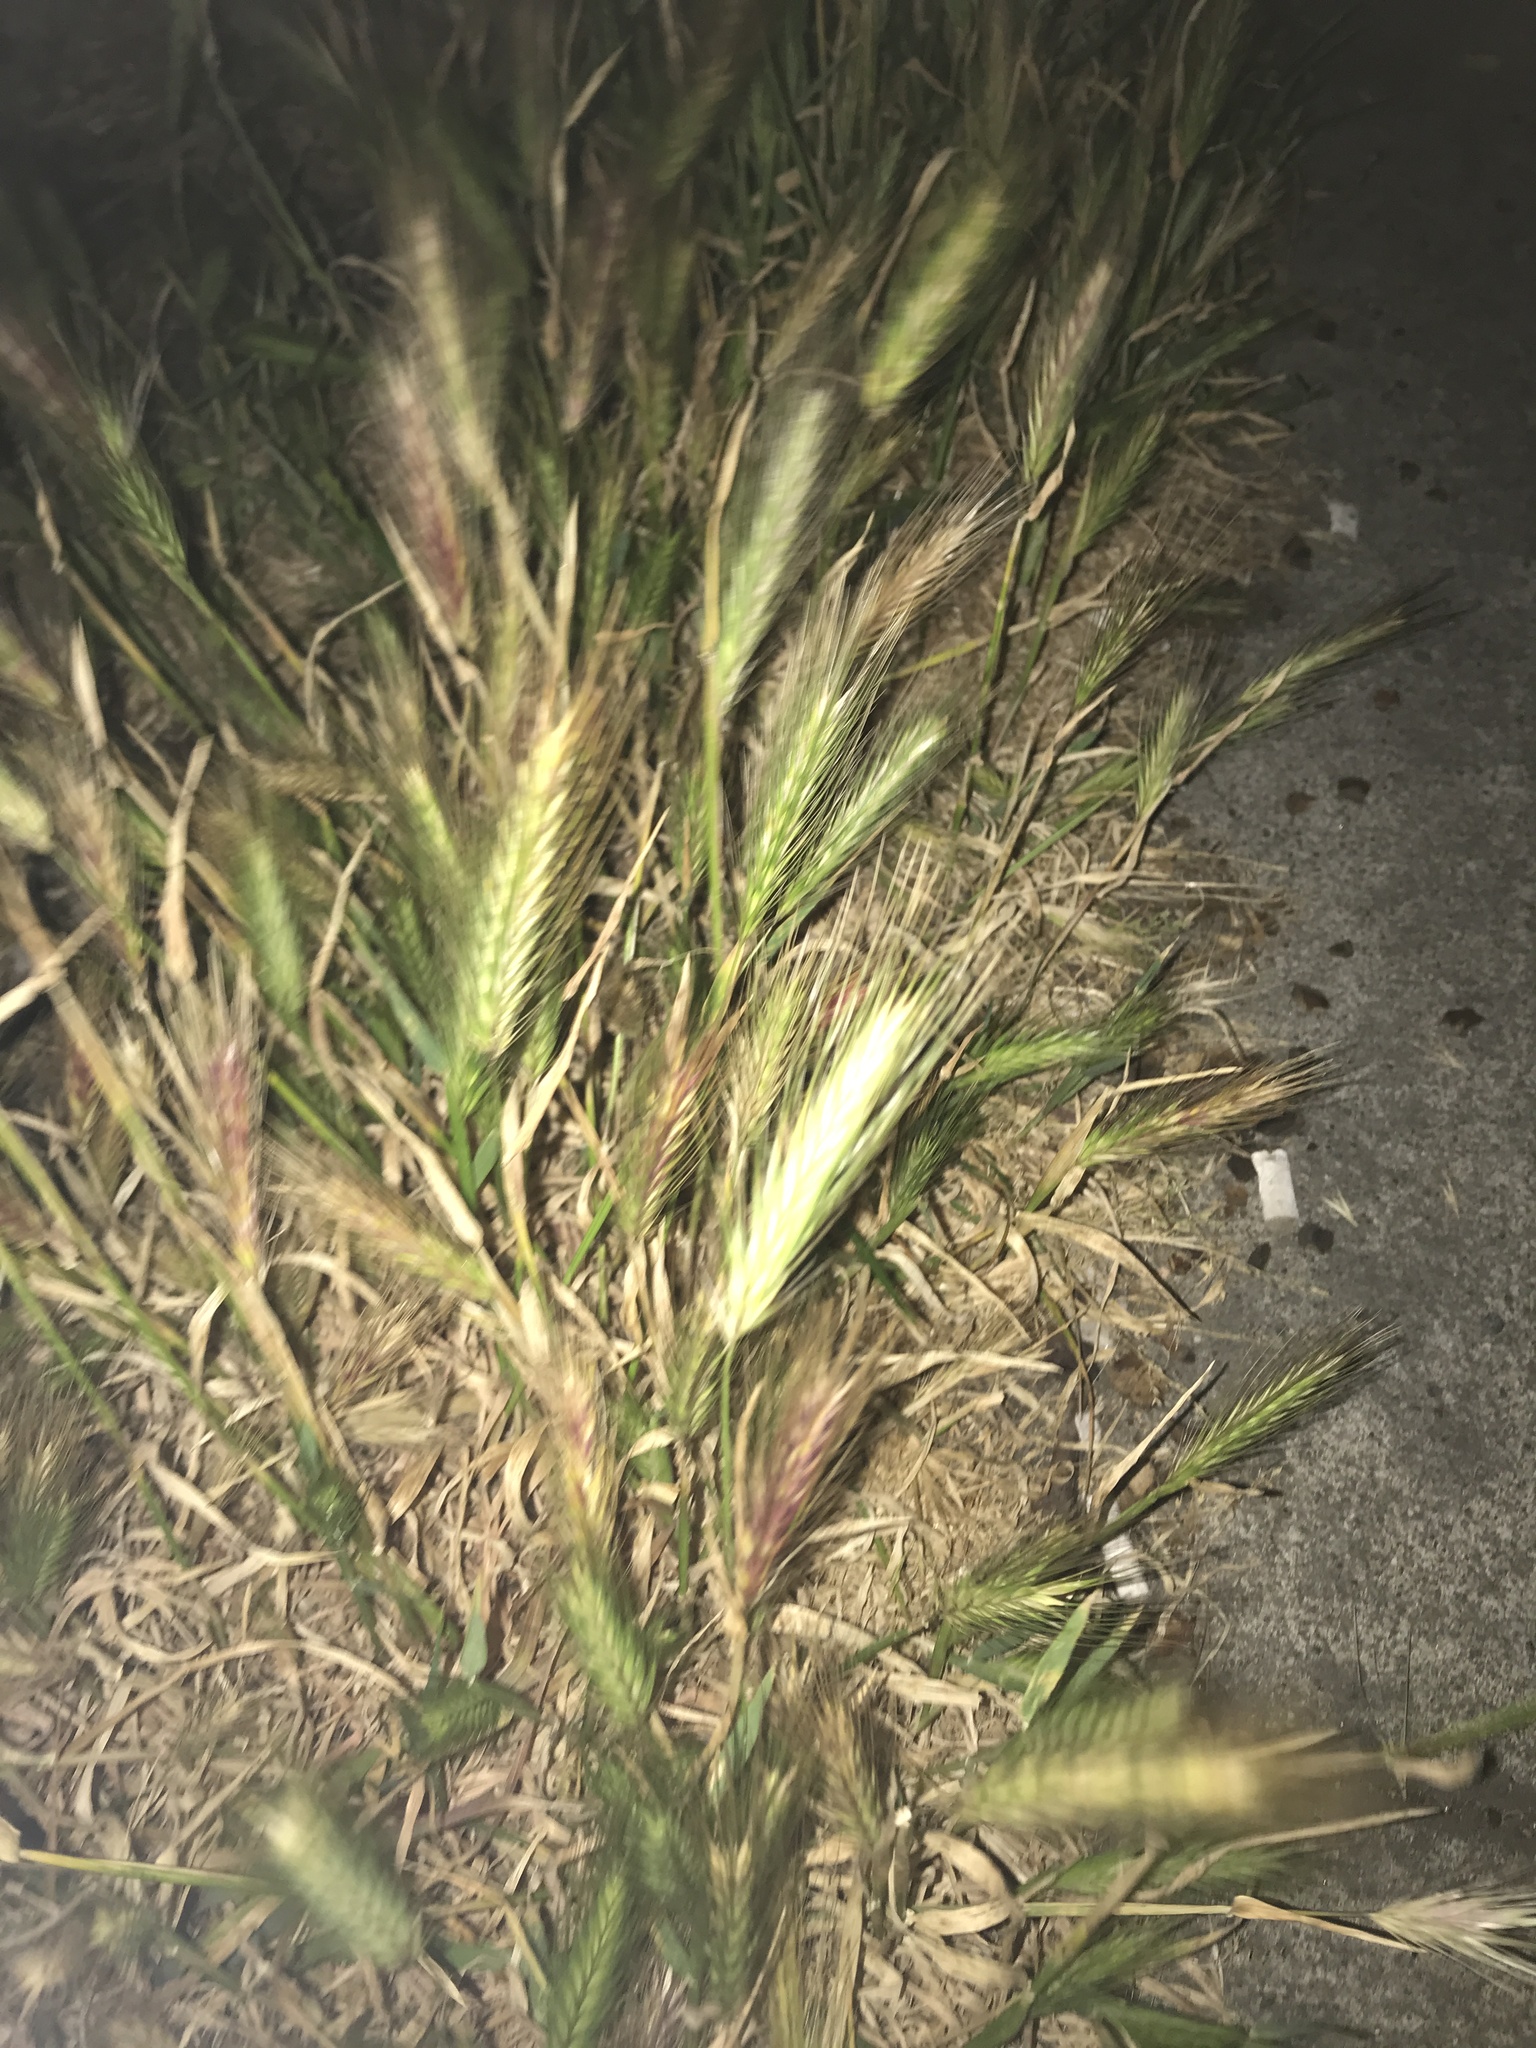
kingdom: Plantae
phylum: Tracheophyta
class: Liliopsida
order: Poales
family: Poaceae
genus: Hordeum
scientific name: Hordeum murinum
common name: Wall barley
